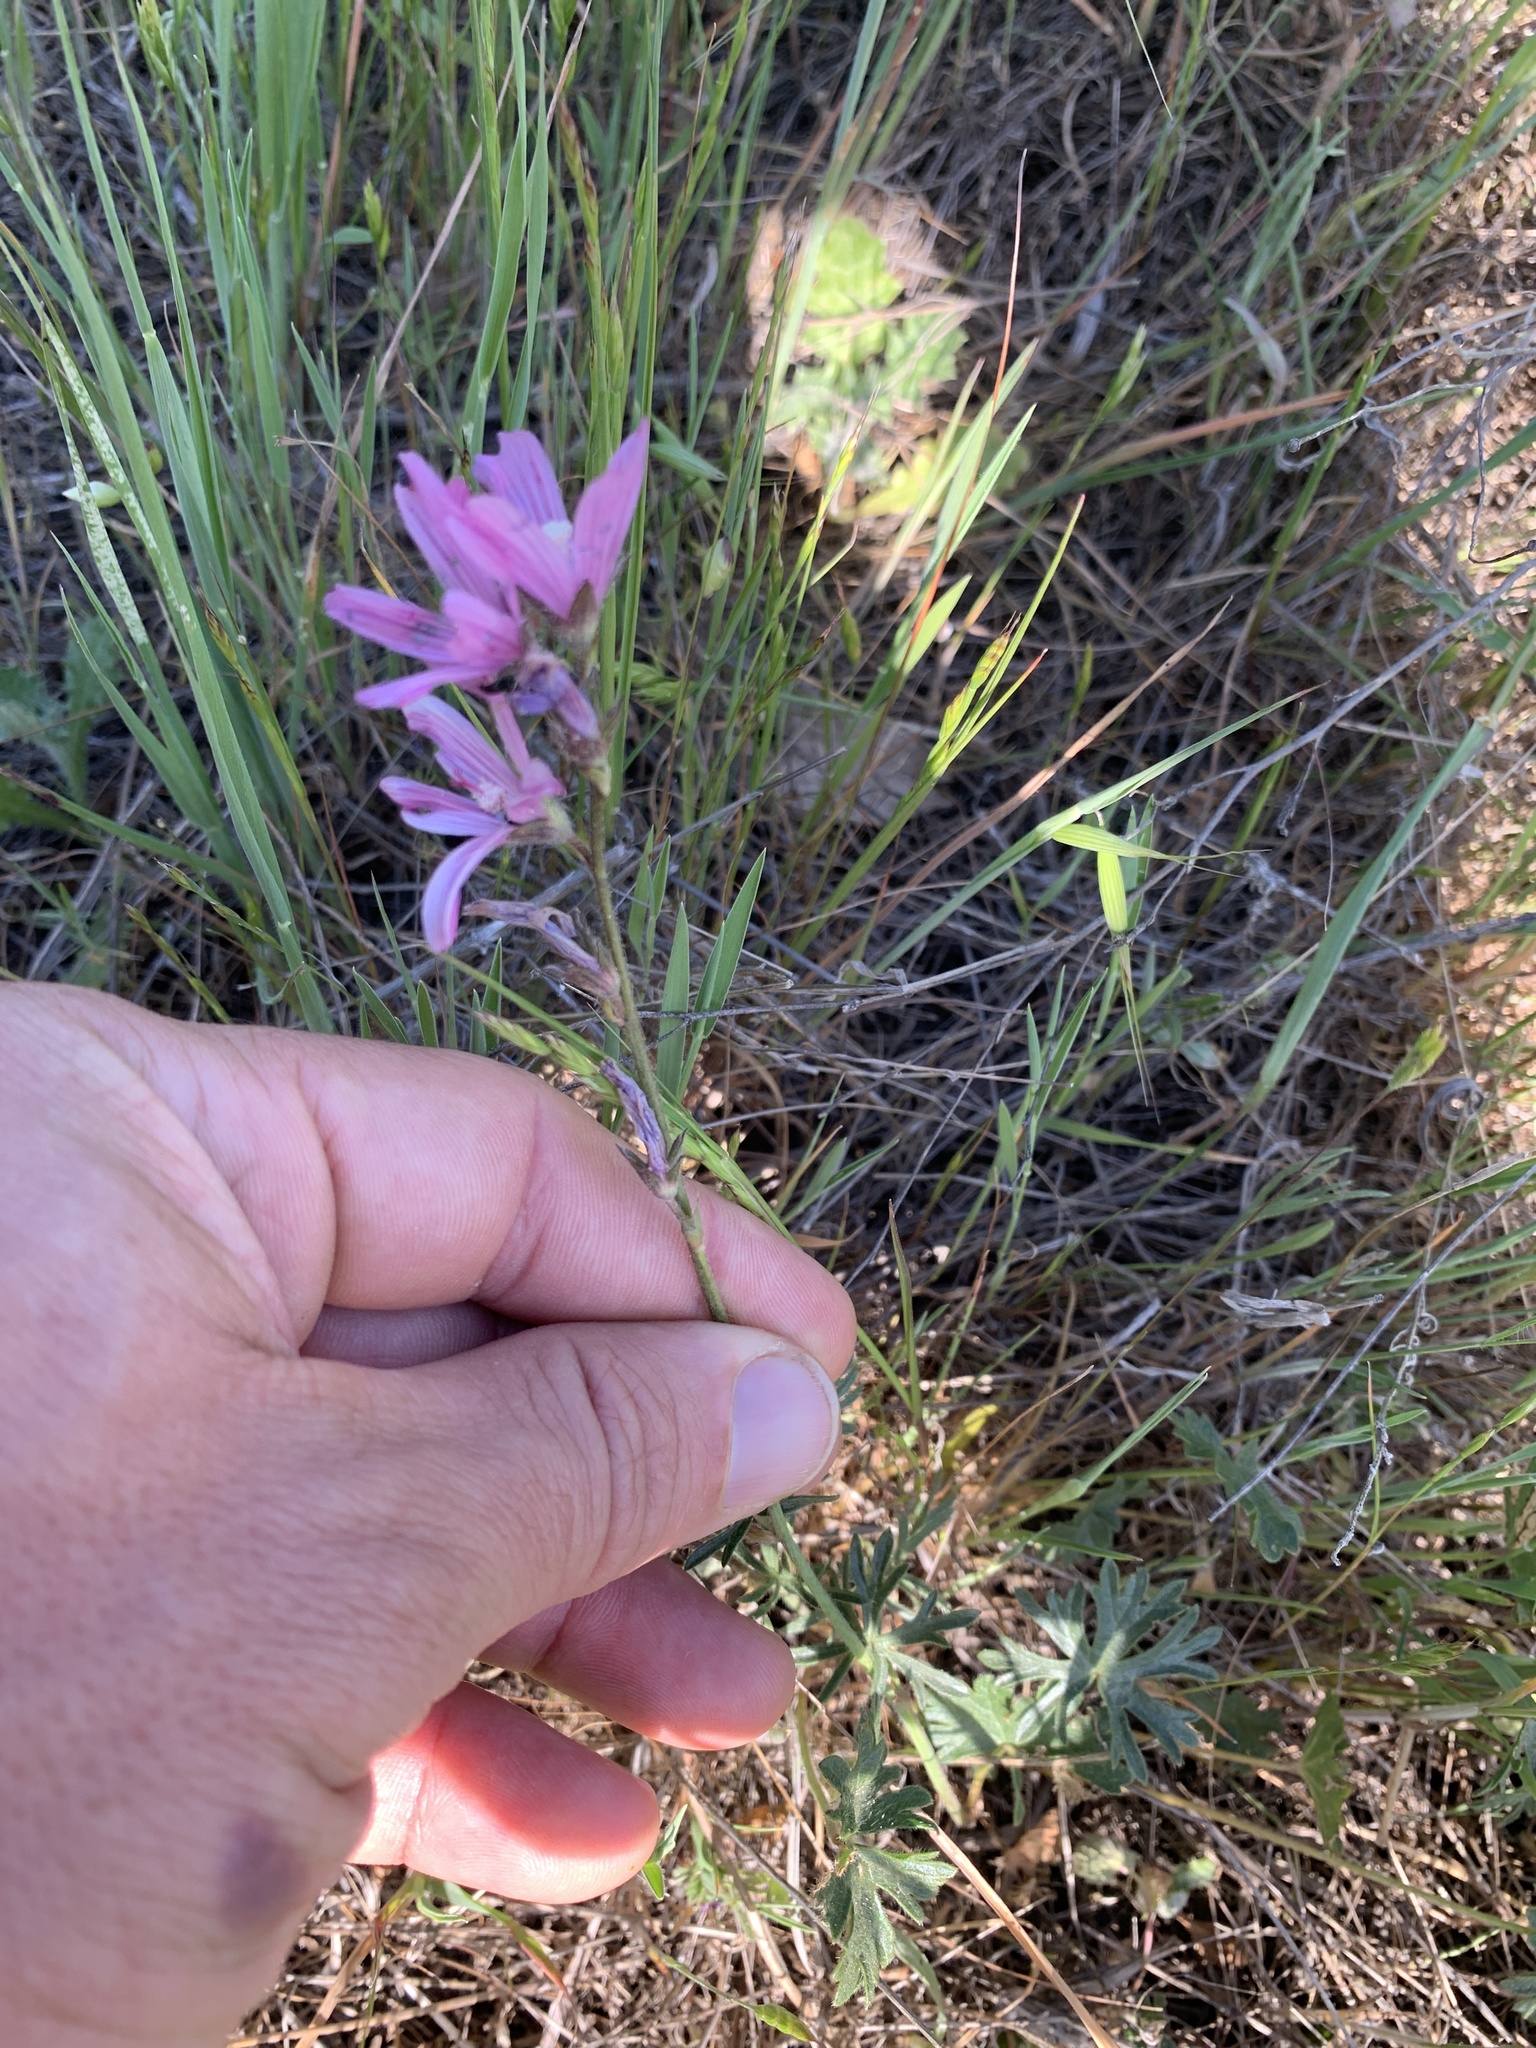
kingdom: Plantae
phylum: Tracheophyta
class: Magnoliopsida
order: Malvales
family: Malvaceae
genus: Sidalcea
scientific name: Sidalcea malviflora
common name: Greek mallow
